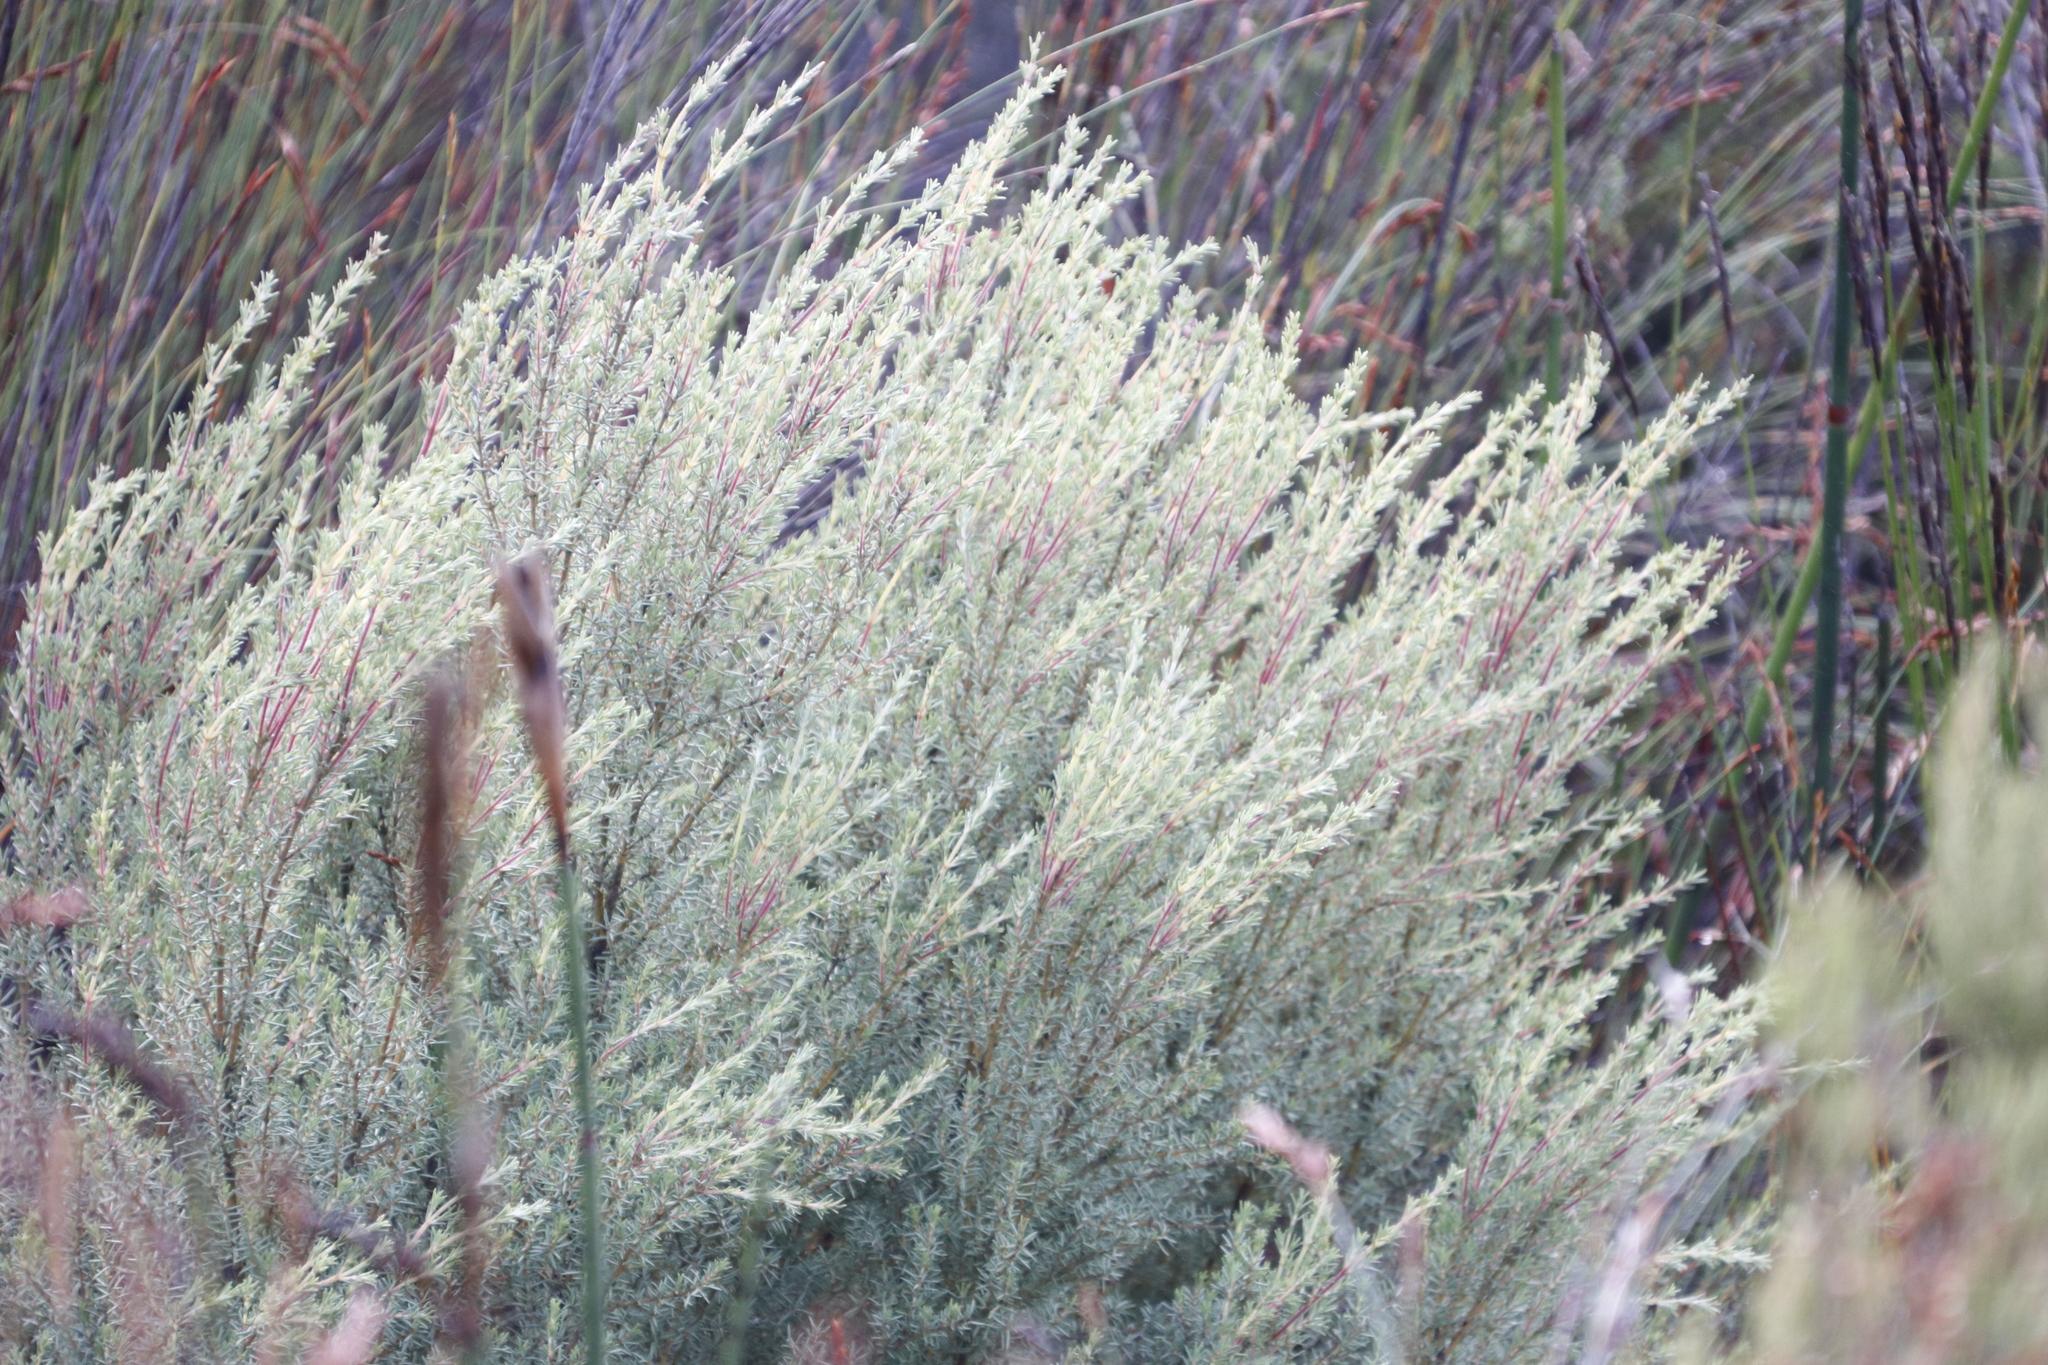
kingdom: Plantae
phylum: Tracheophyta
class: Magnoliopsida
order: Cornales
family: Grubbiaceae
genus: Grubbia
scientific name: Grubbia rosmarinifolia
